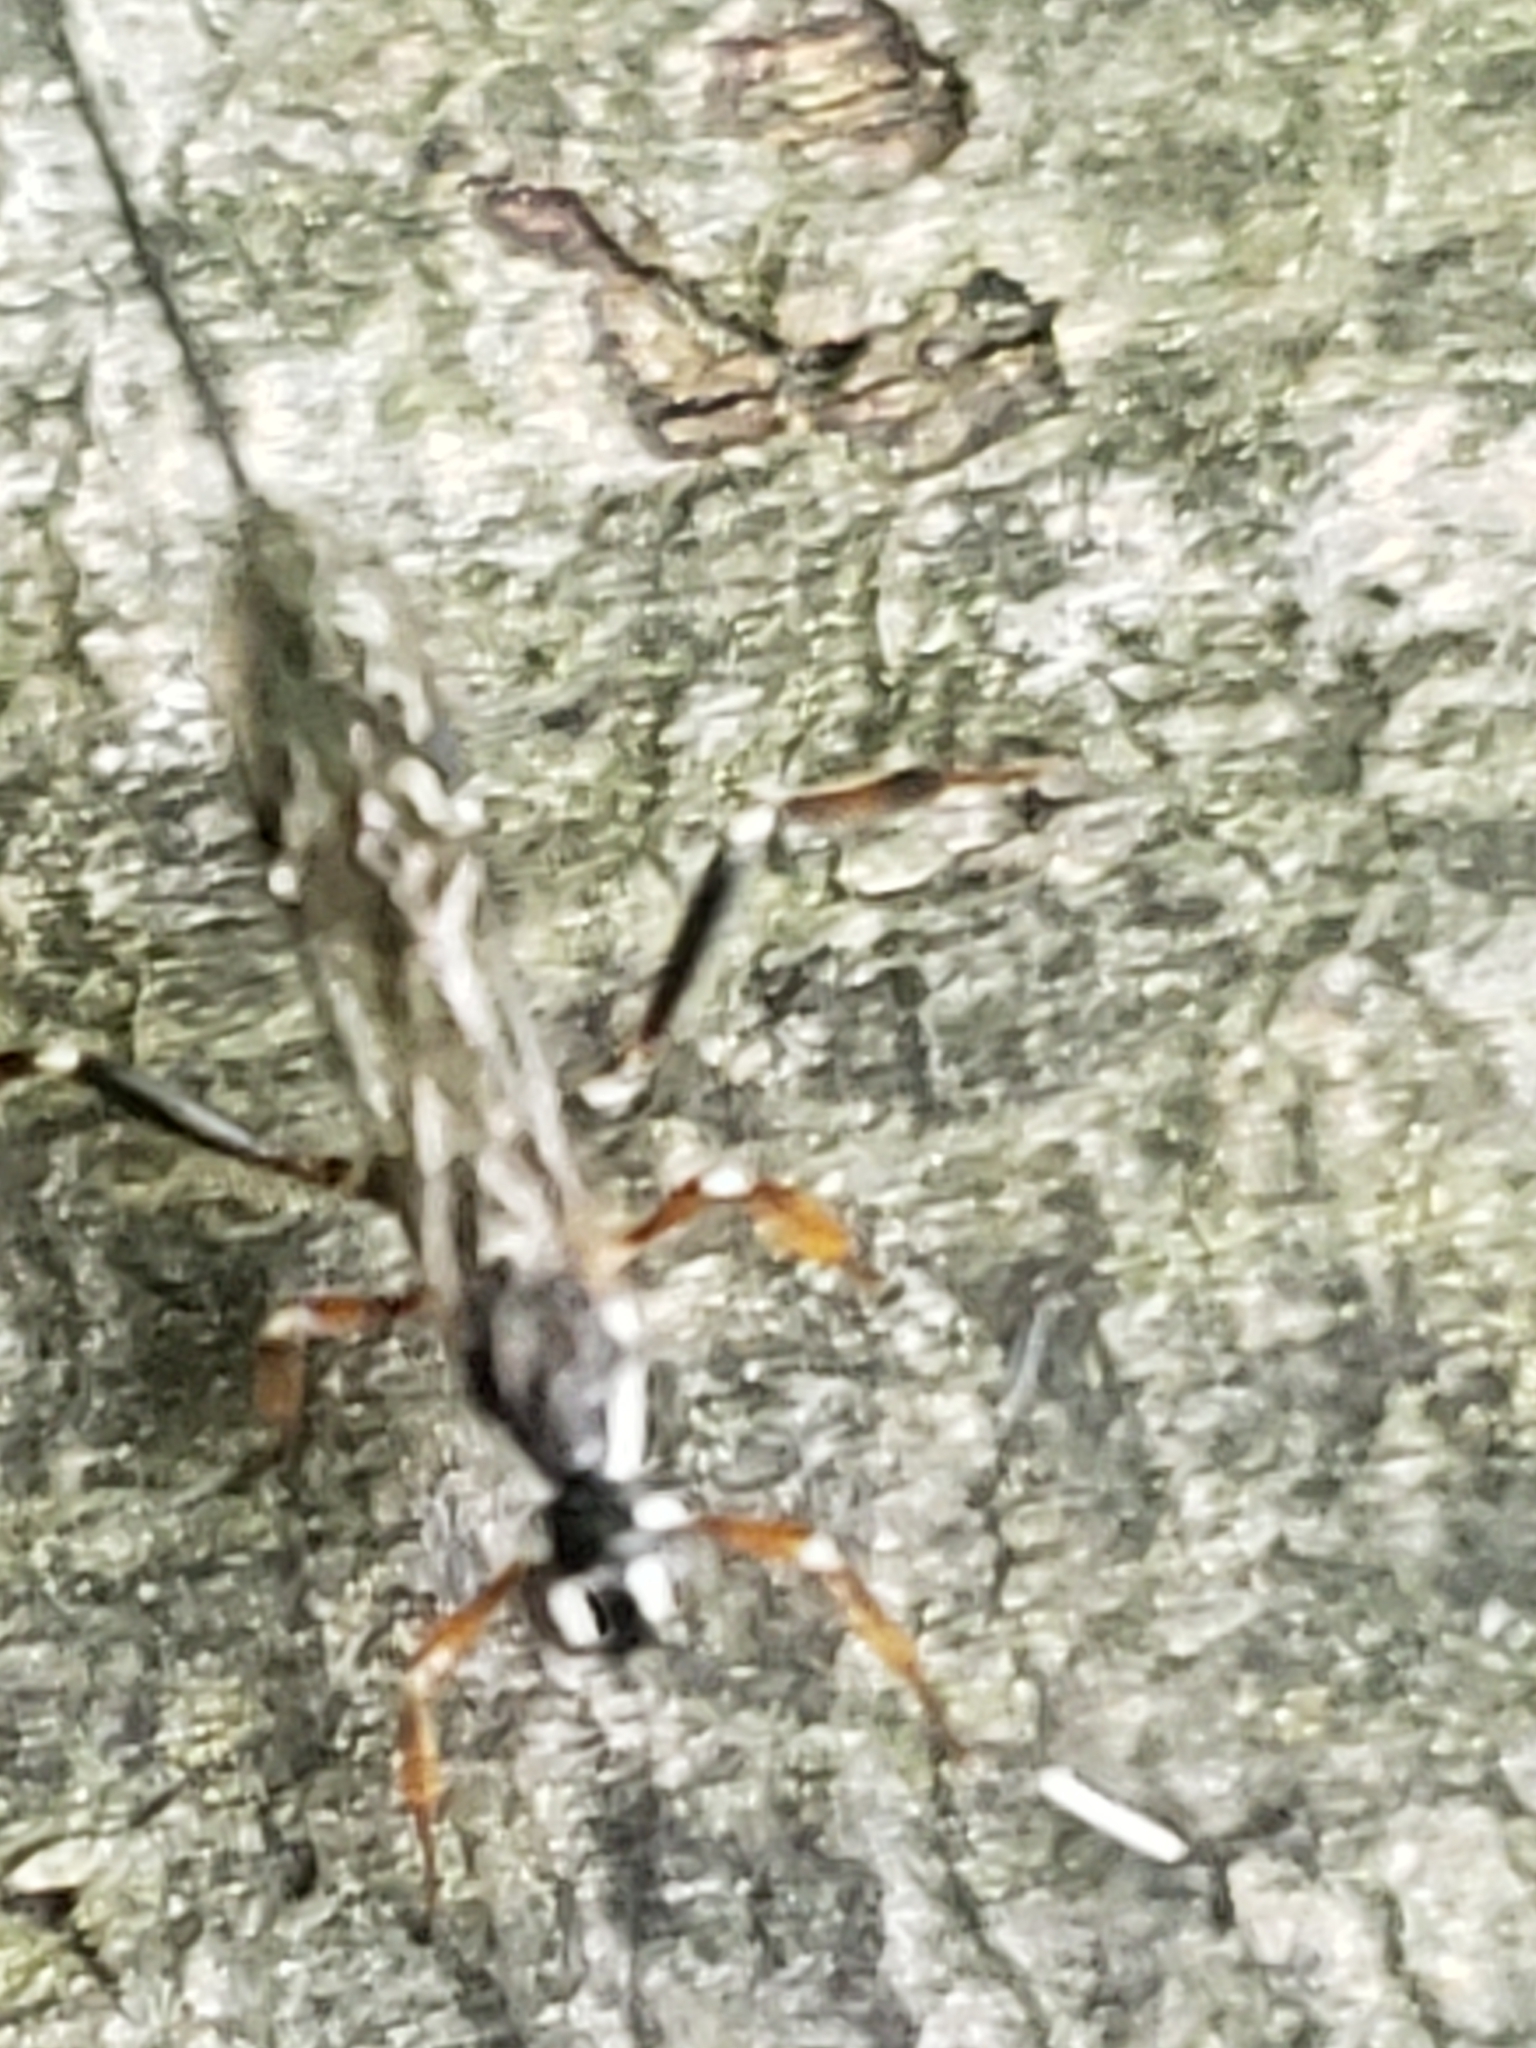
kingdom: Animalia
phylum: Arthropoda
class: Insecta
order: Hymenoptera
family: Ichneumonidae
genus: Xorides
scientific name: Xorides albopictus
